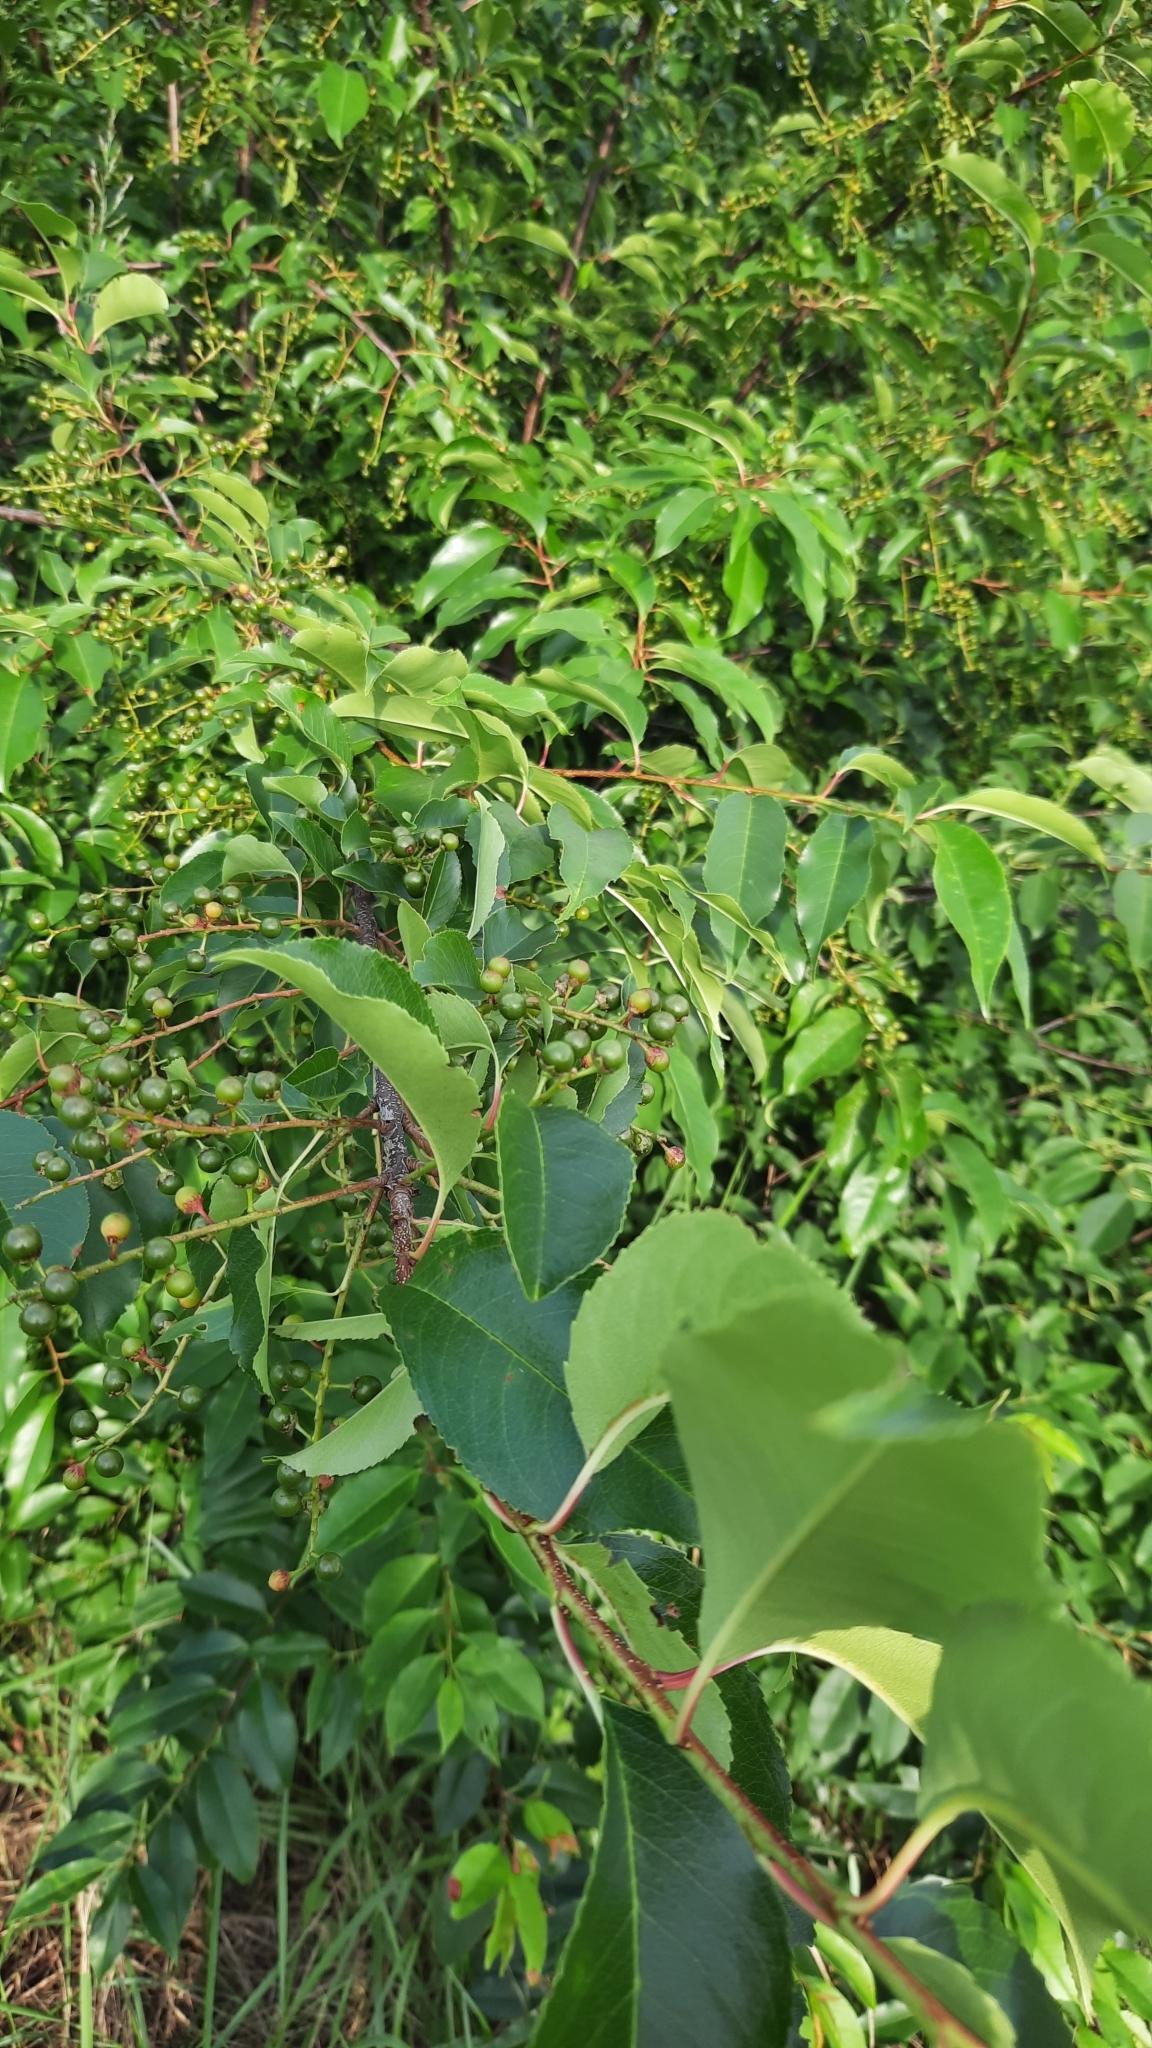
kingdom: Plantae
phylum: Tracheophyta
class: Magnoliopsida
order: Rosales
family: Rosaceae
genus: Prunus
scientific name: Prunus serotina
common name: Black cherry
